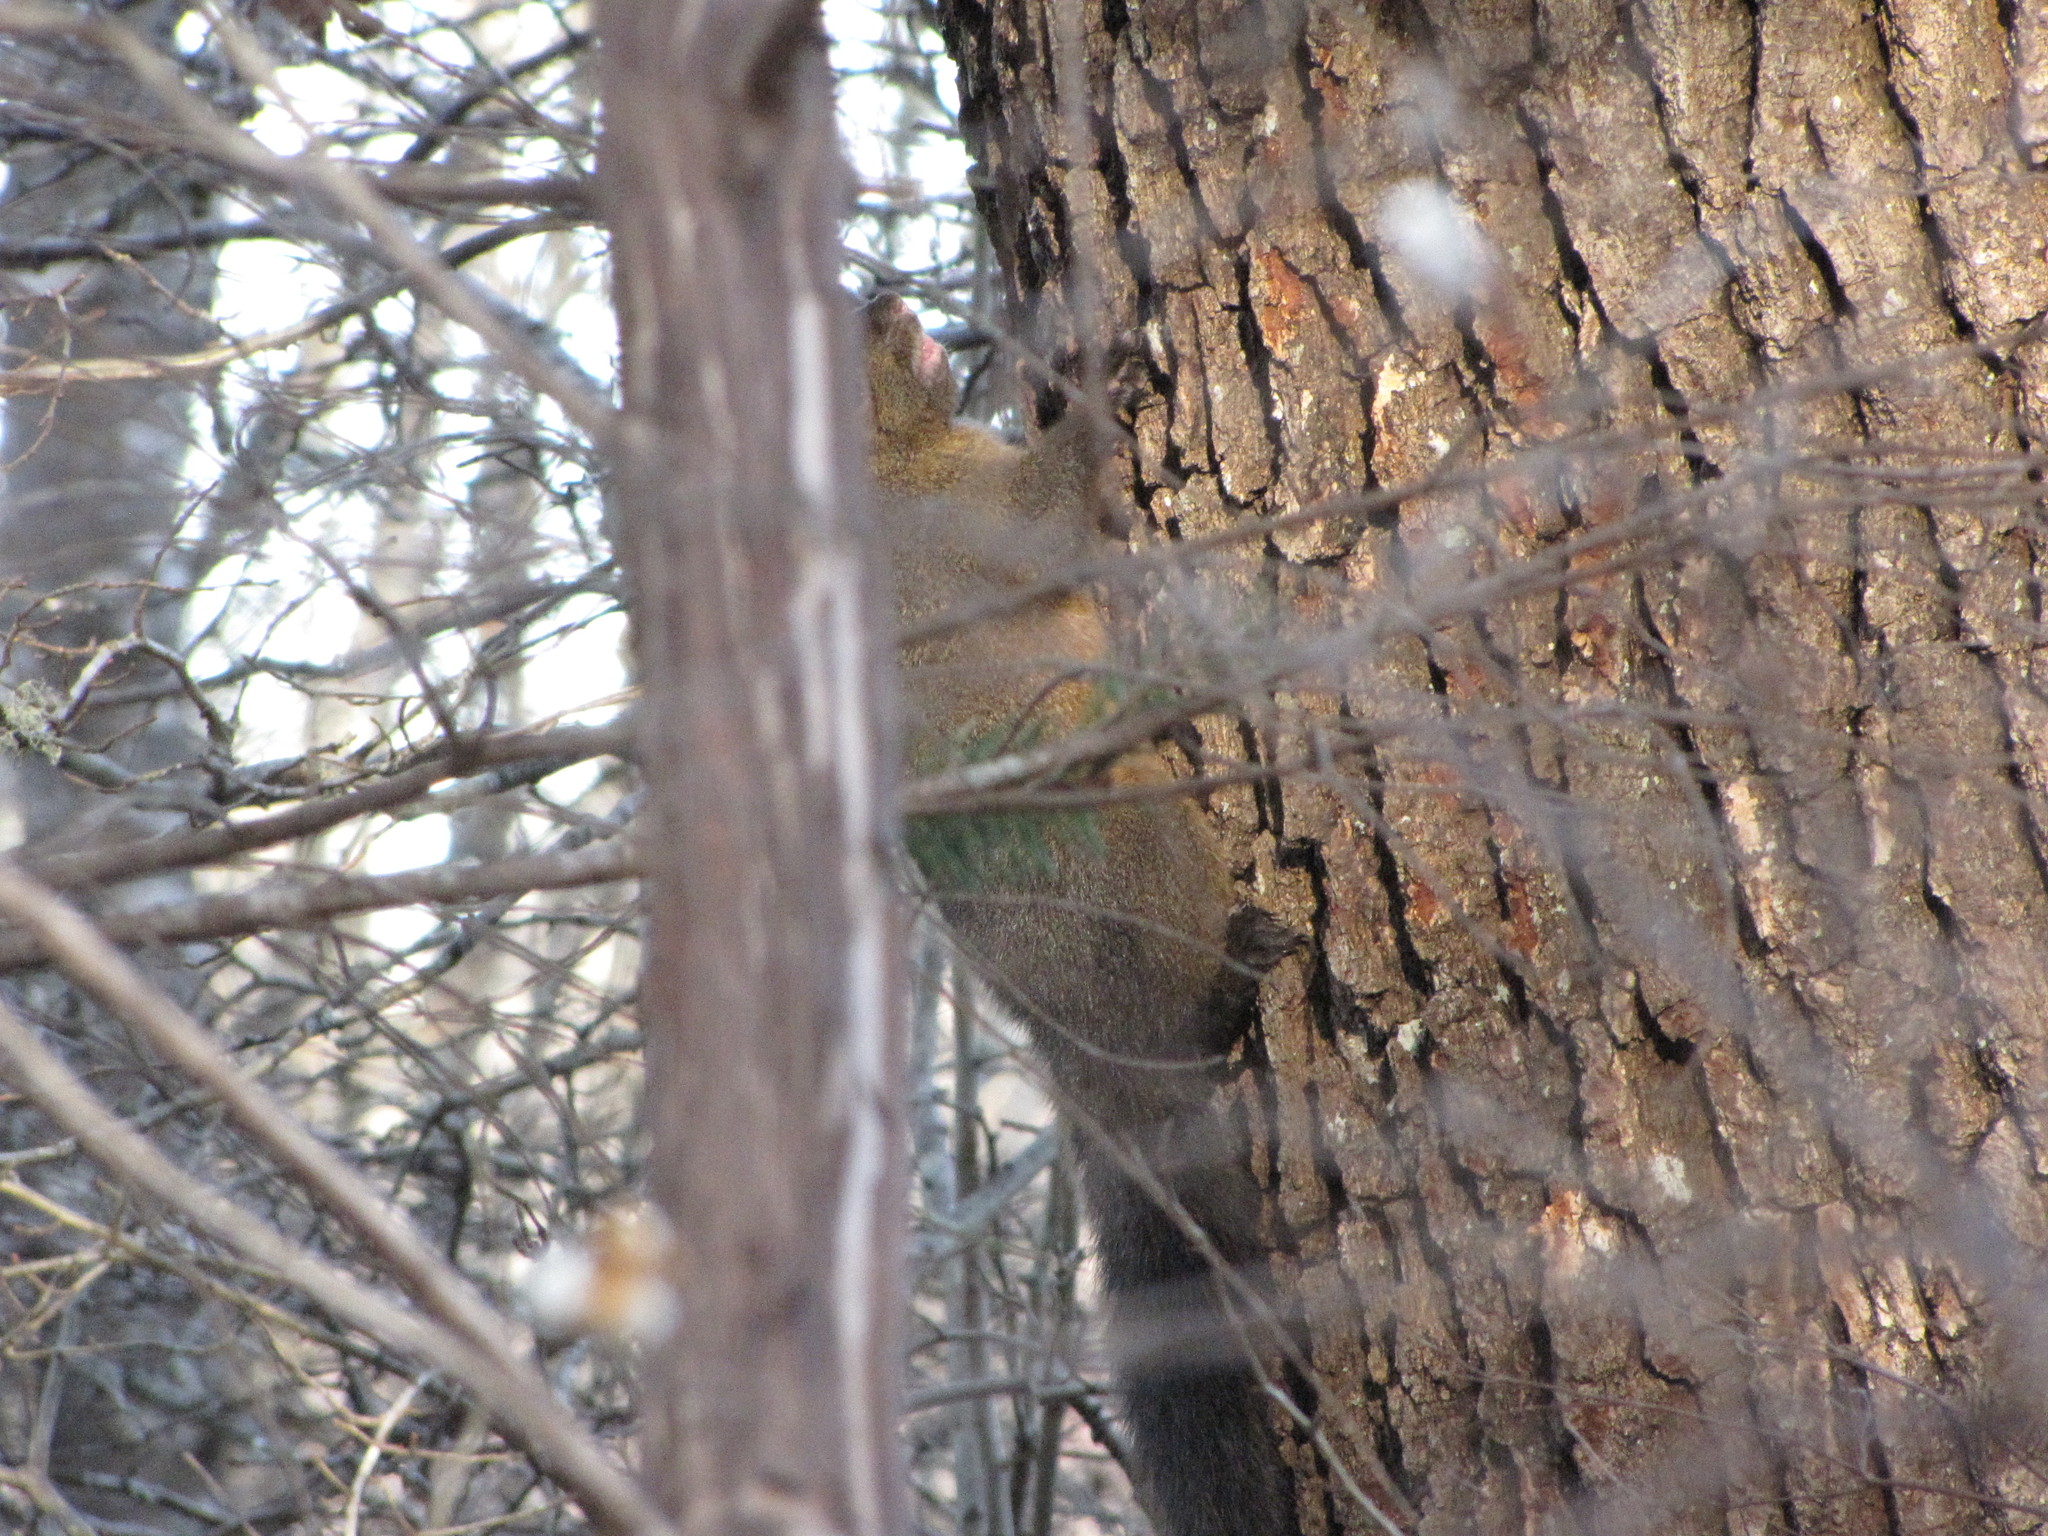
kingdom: Animalia
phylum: Chordata
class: Mammalia
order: Rodentia
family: Sciuridae
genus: Sciurus
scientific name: Sciurus carolinensis
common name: Eastern gray squirrel
